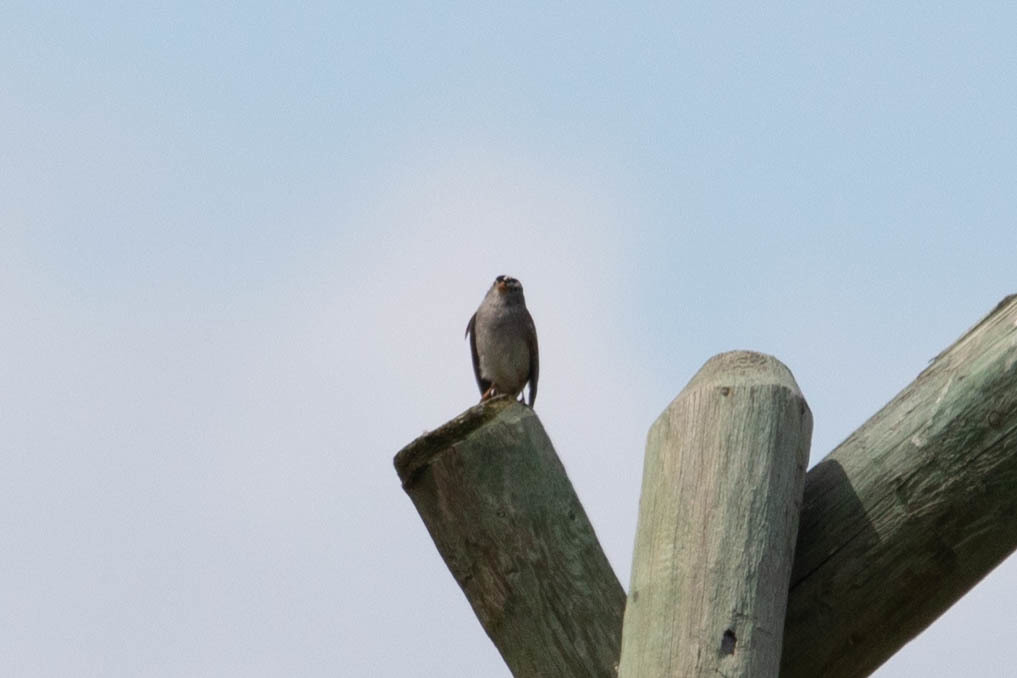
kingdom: Animalia
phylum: Chordata
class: Aves
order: Passeriformes
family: Passerellidae
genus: Zonotrichia
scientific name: Zonotrichia leucophrys
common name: White-crowned sparrow
